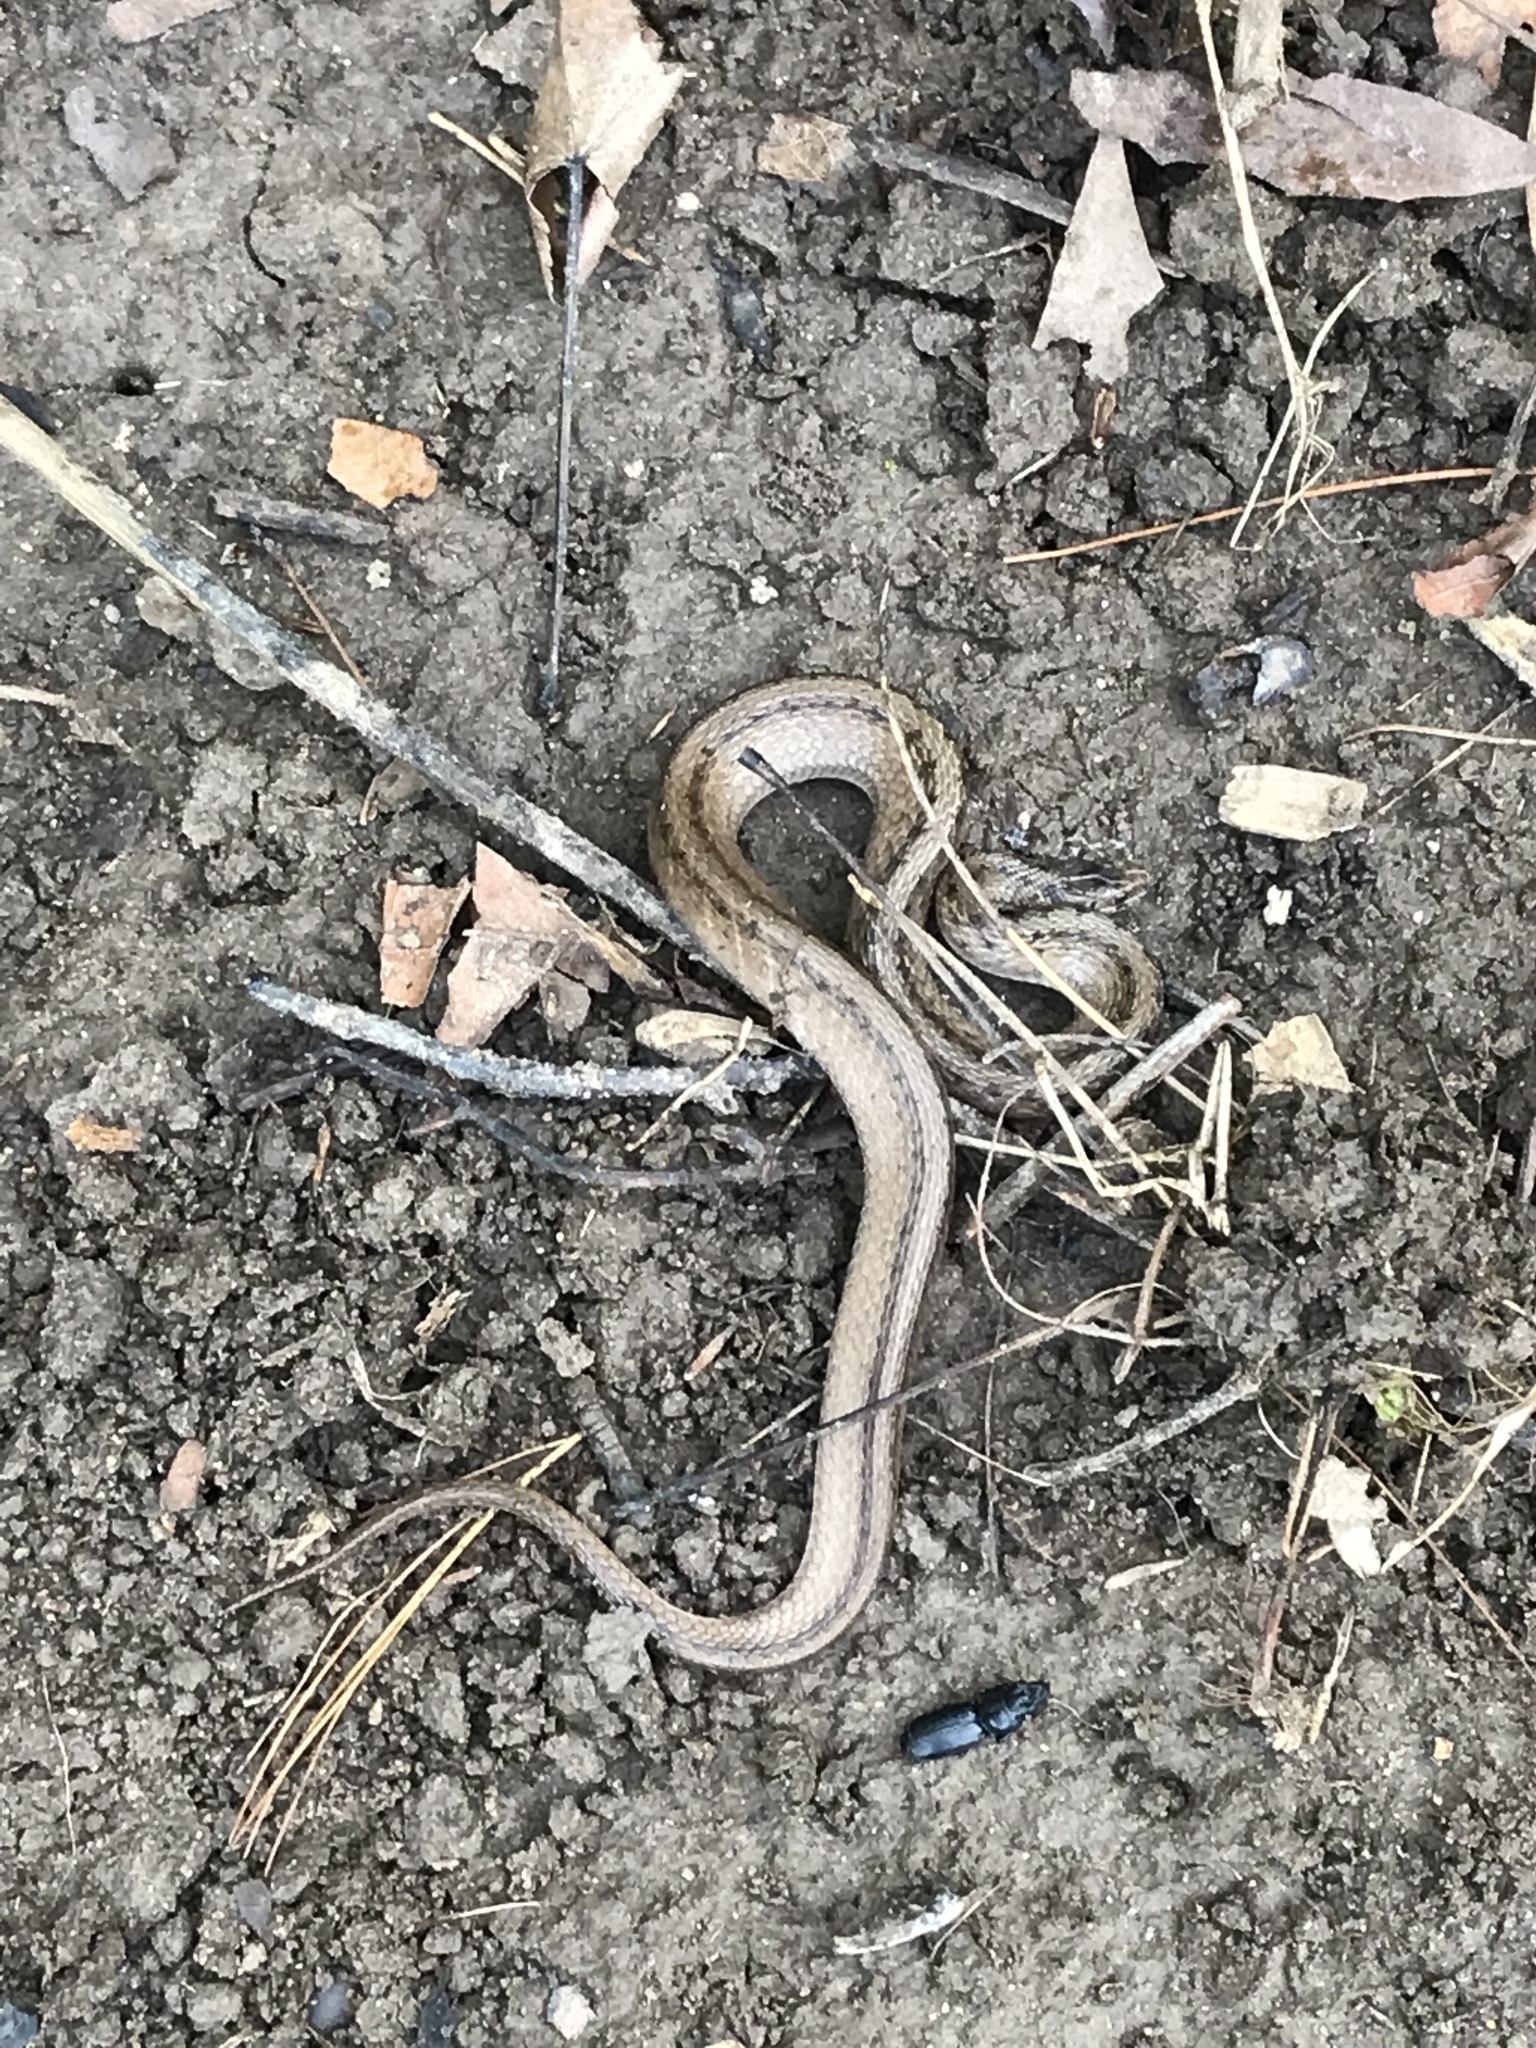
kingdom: Animalia
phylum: Chordata
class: Squamata
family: Colubridae
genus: Storeria
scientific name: Storeria dekayi
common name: (dekay’s) brown snake
